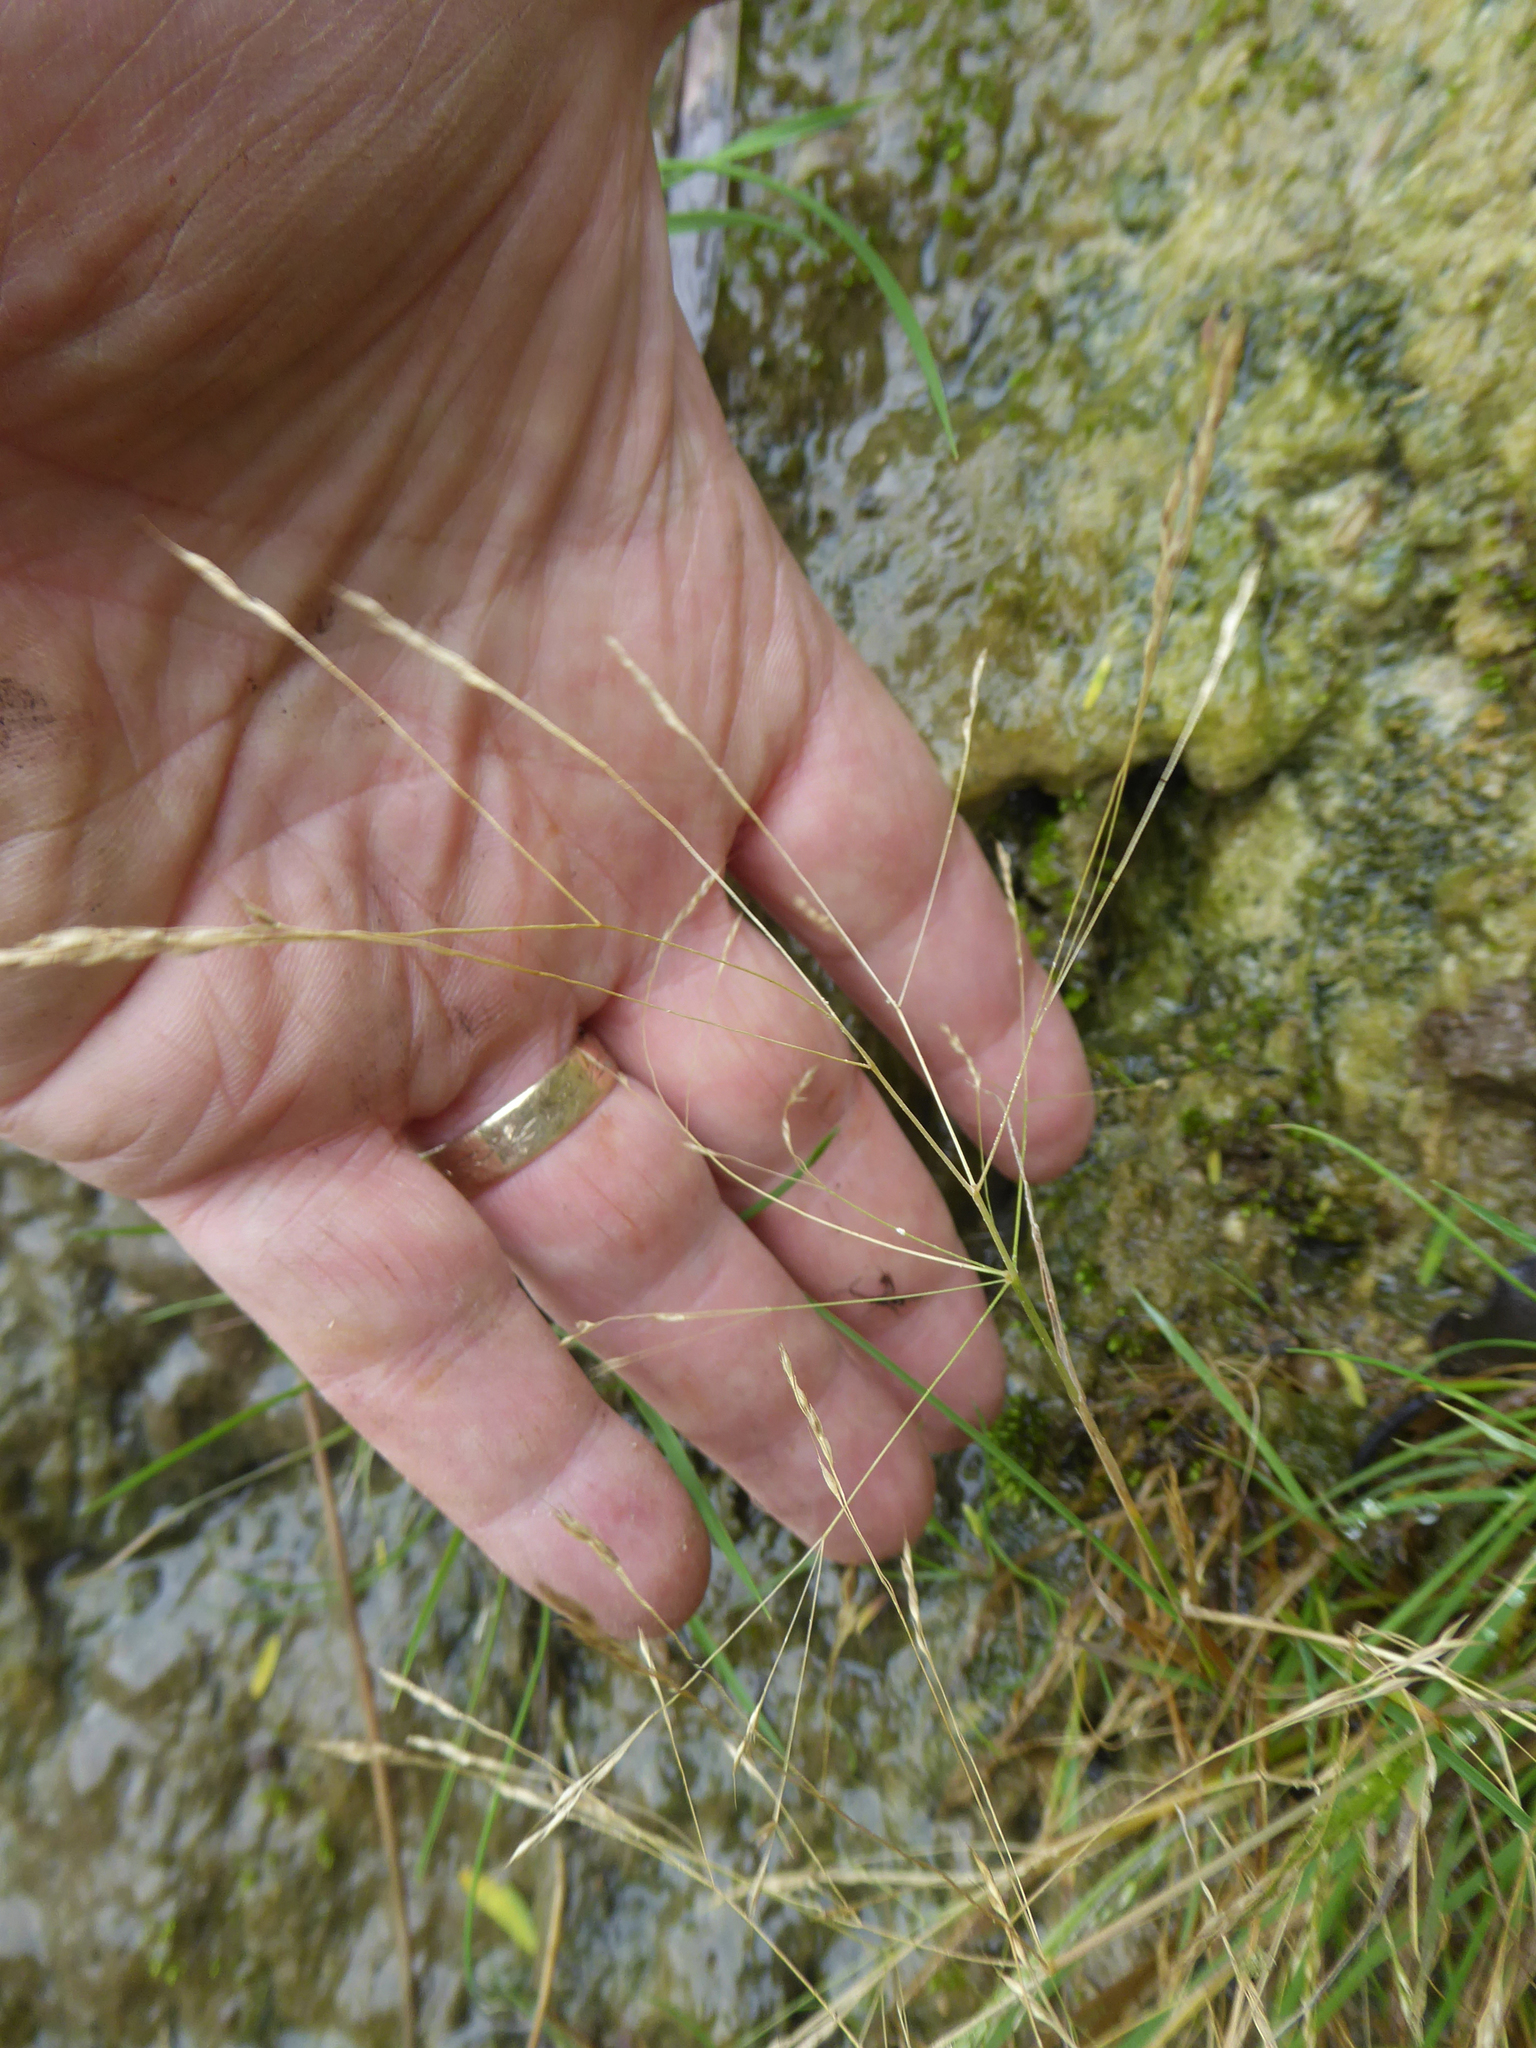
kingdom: Plantae
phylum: Tracheophyta
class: Liliopsida
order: Poales
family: Poaceae
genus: Lachnagrostis
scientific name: Lachnagrostis littoralis
